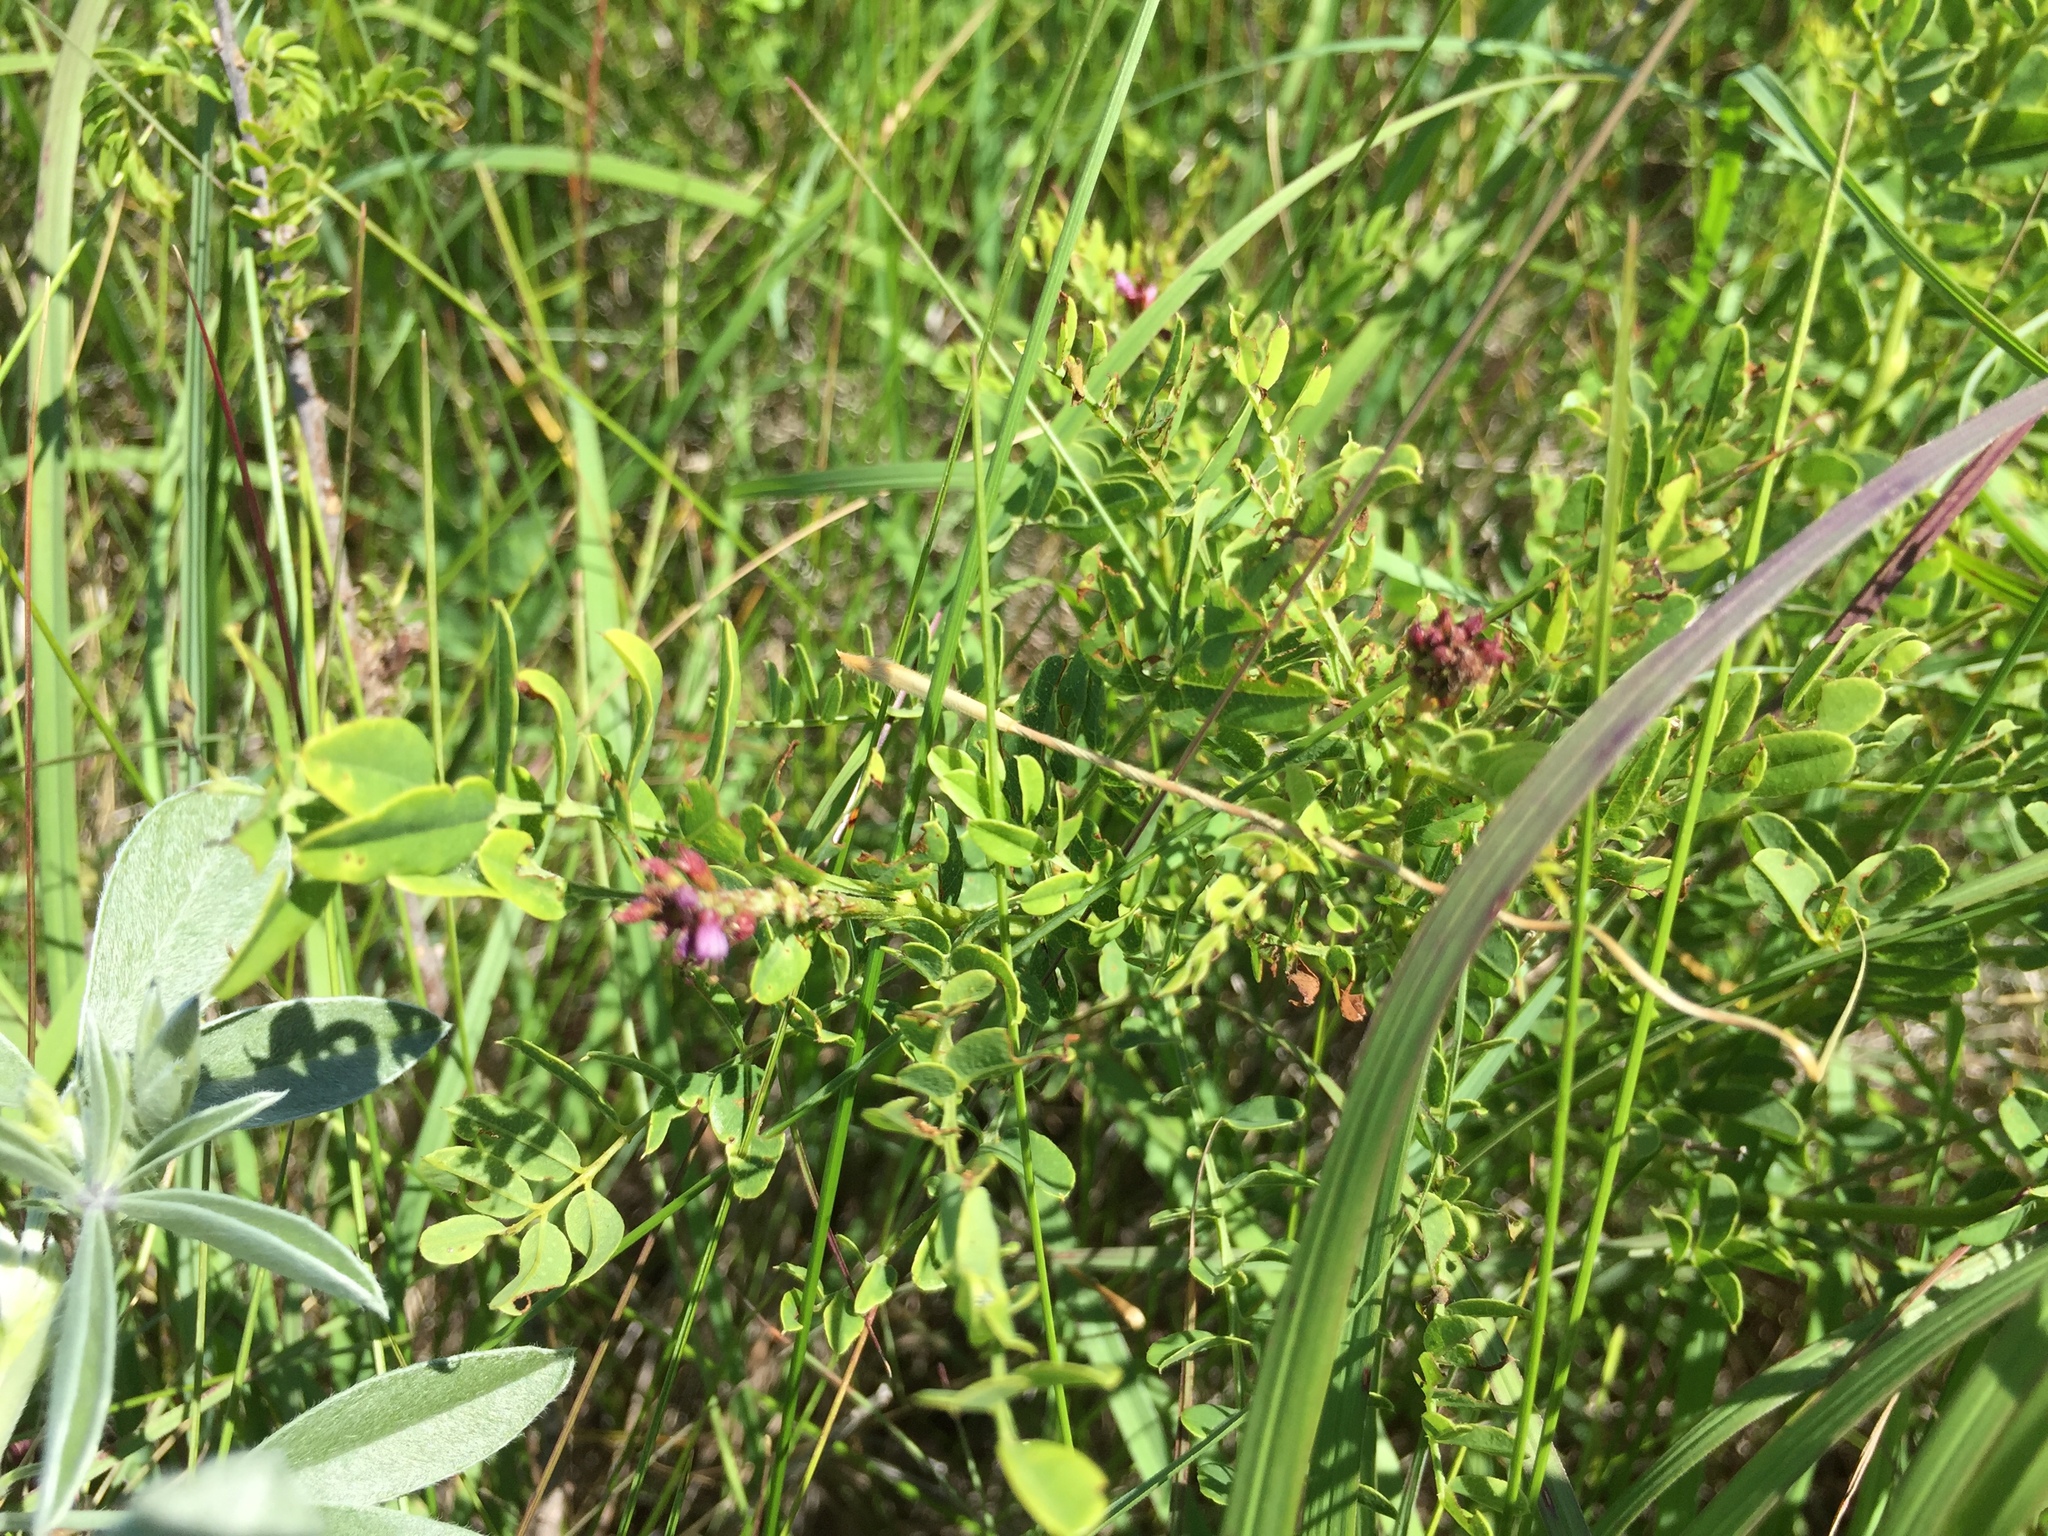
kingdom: Plantae
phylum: Tracheophyta
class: Magnoliopsida
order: Fabales
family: Fabaceae
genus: Amorpha
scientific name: Amorpha nana
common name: Fragrant false indigo
